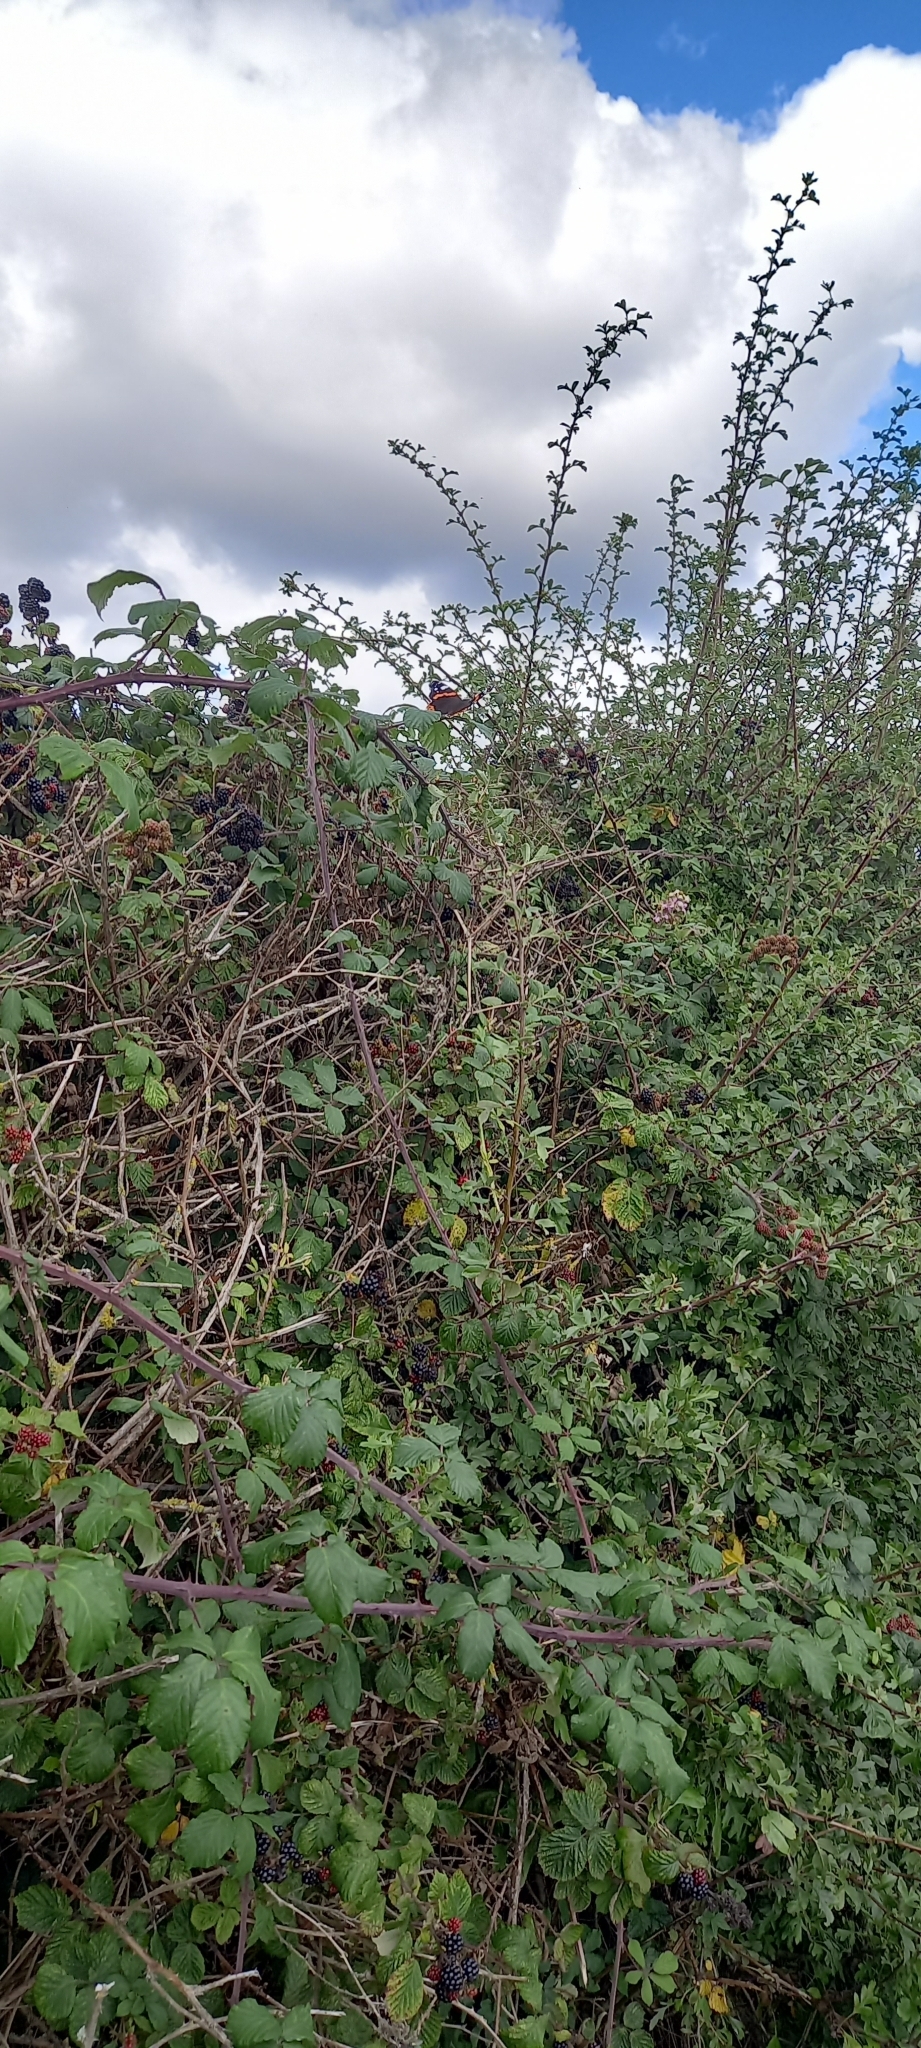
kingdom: Animalia
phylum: Arthropoda
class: Insecta
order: Lepidoptera
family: Nymphalidae
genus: Vanessa
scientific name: Vanessa atalanta
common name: Red admiral
